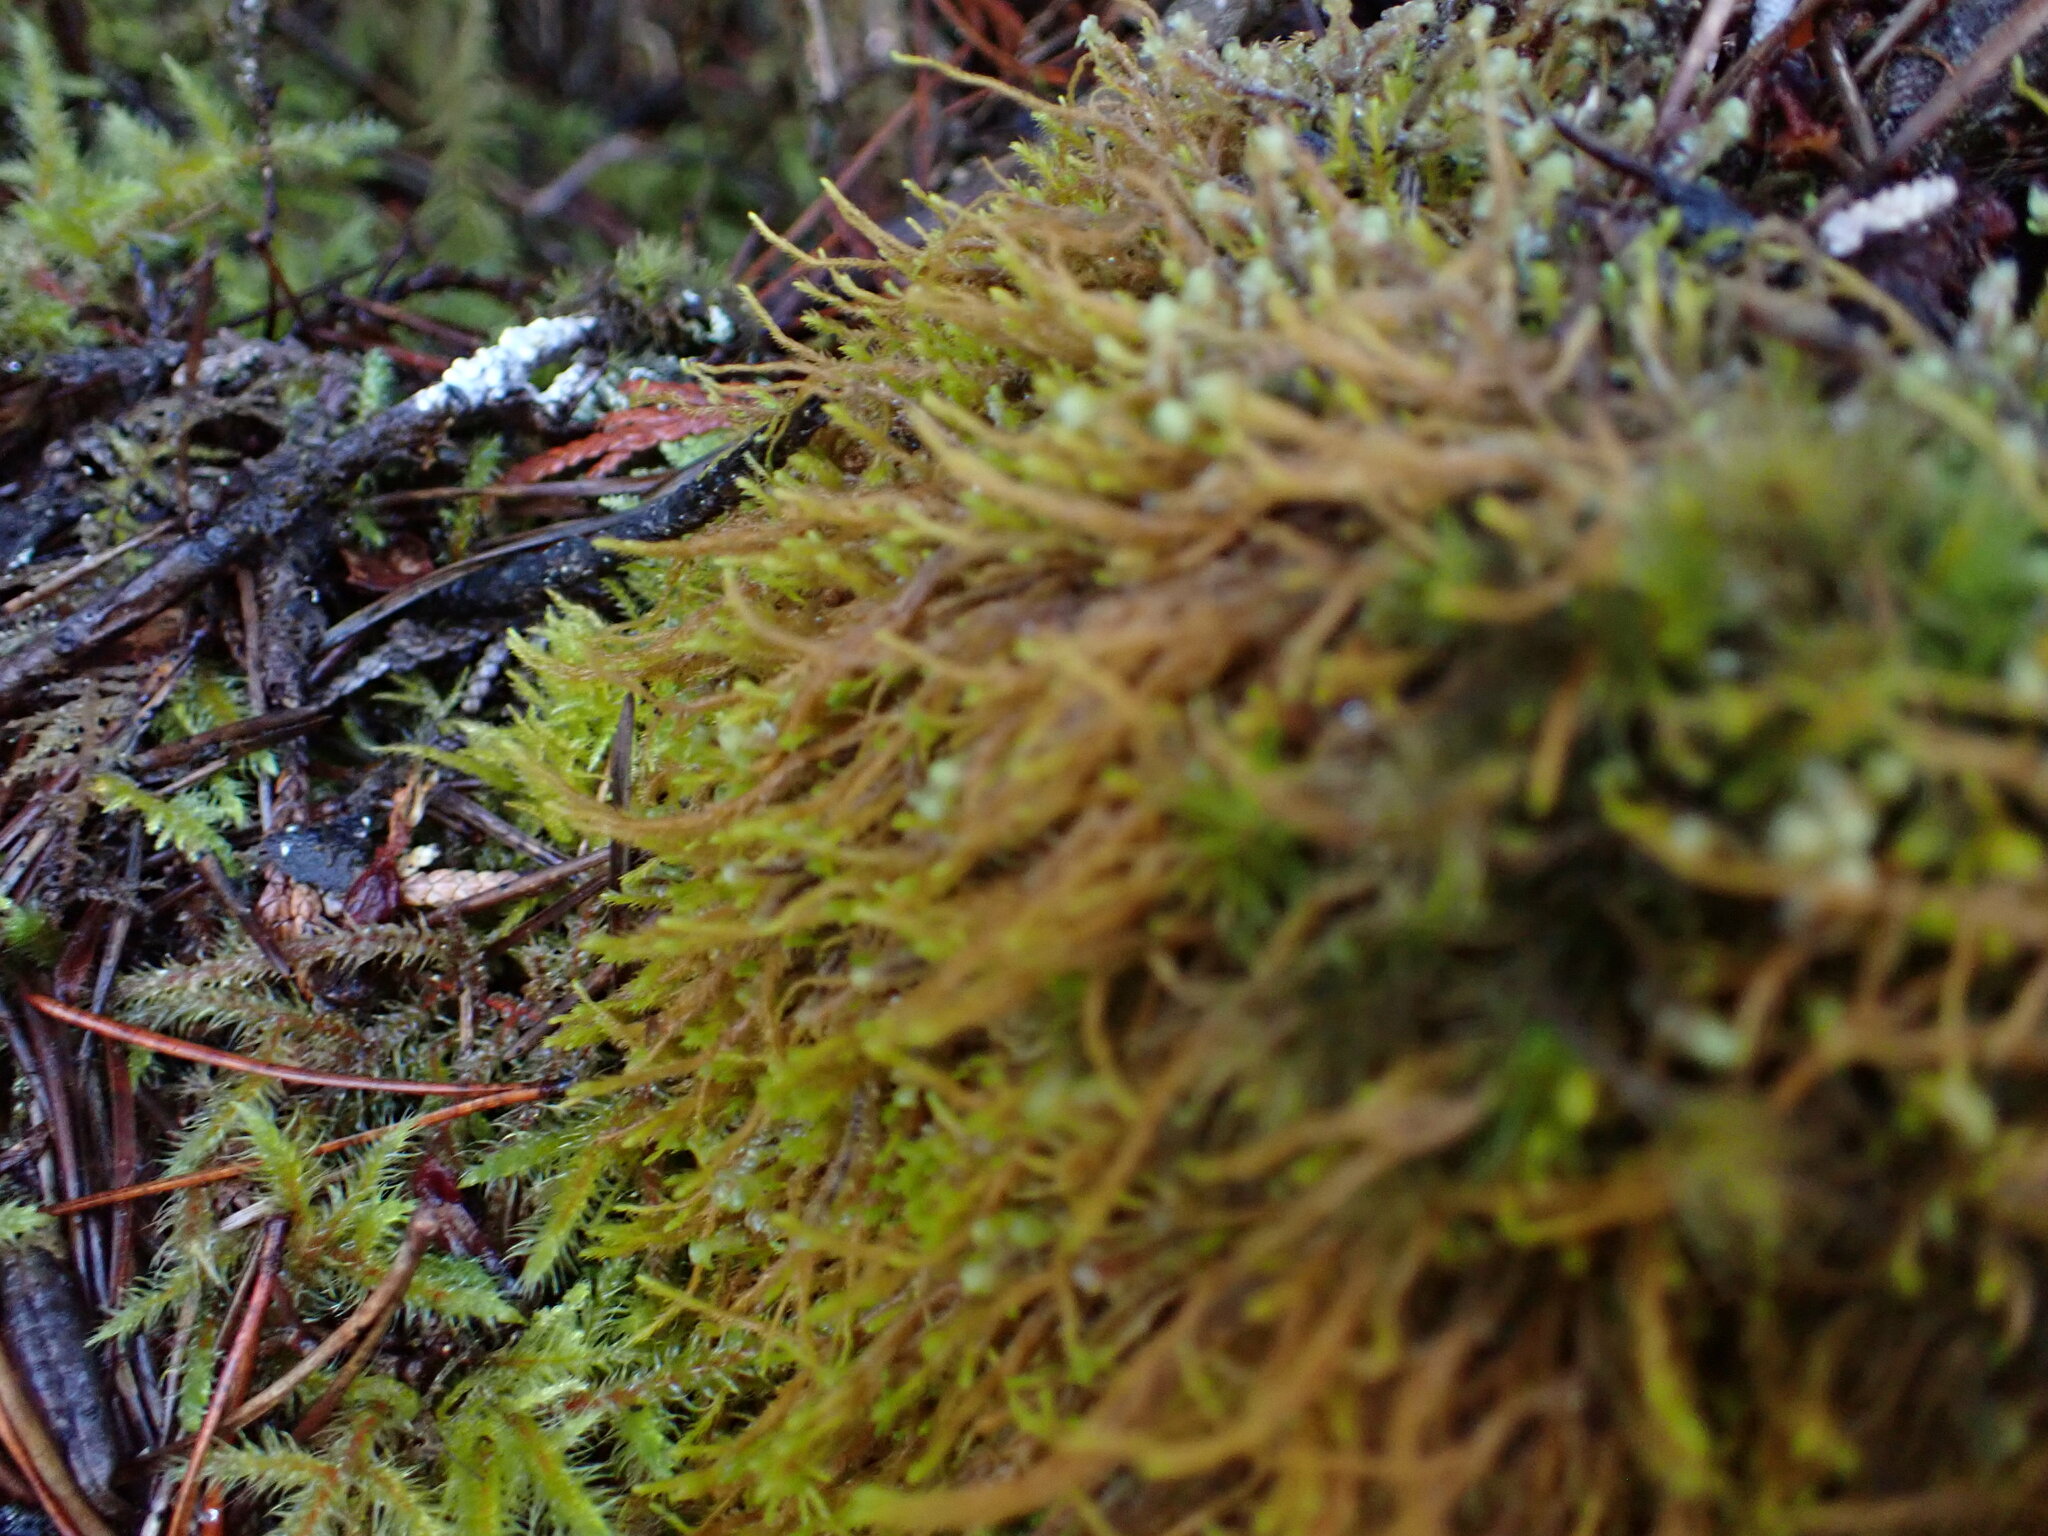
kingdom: Plantae
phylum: Marchantiophyta
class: Jungermanniopsida
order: Jungermanniales
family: Herbertaceae
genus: Herbertus
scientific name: Herbertus aduncus
